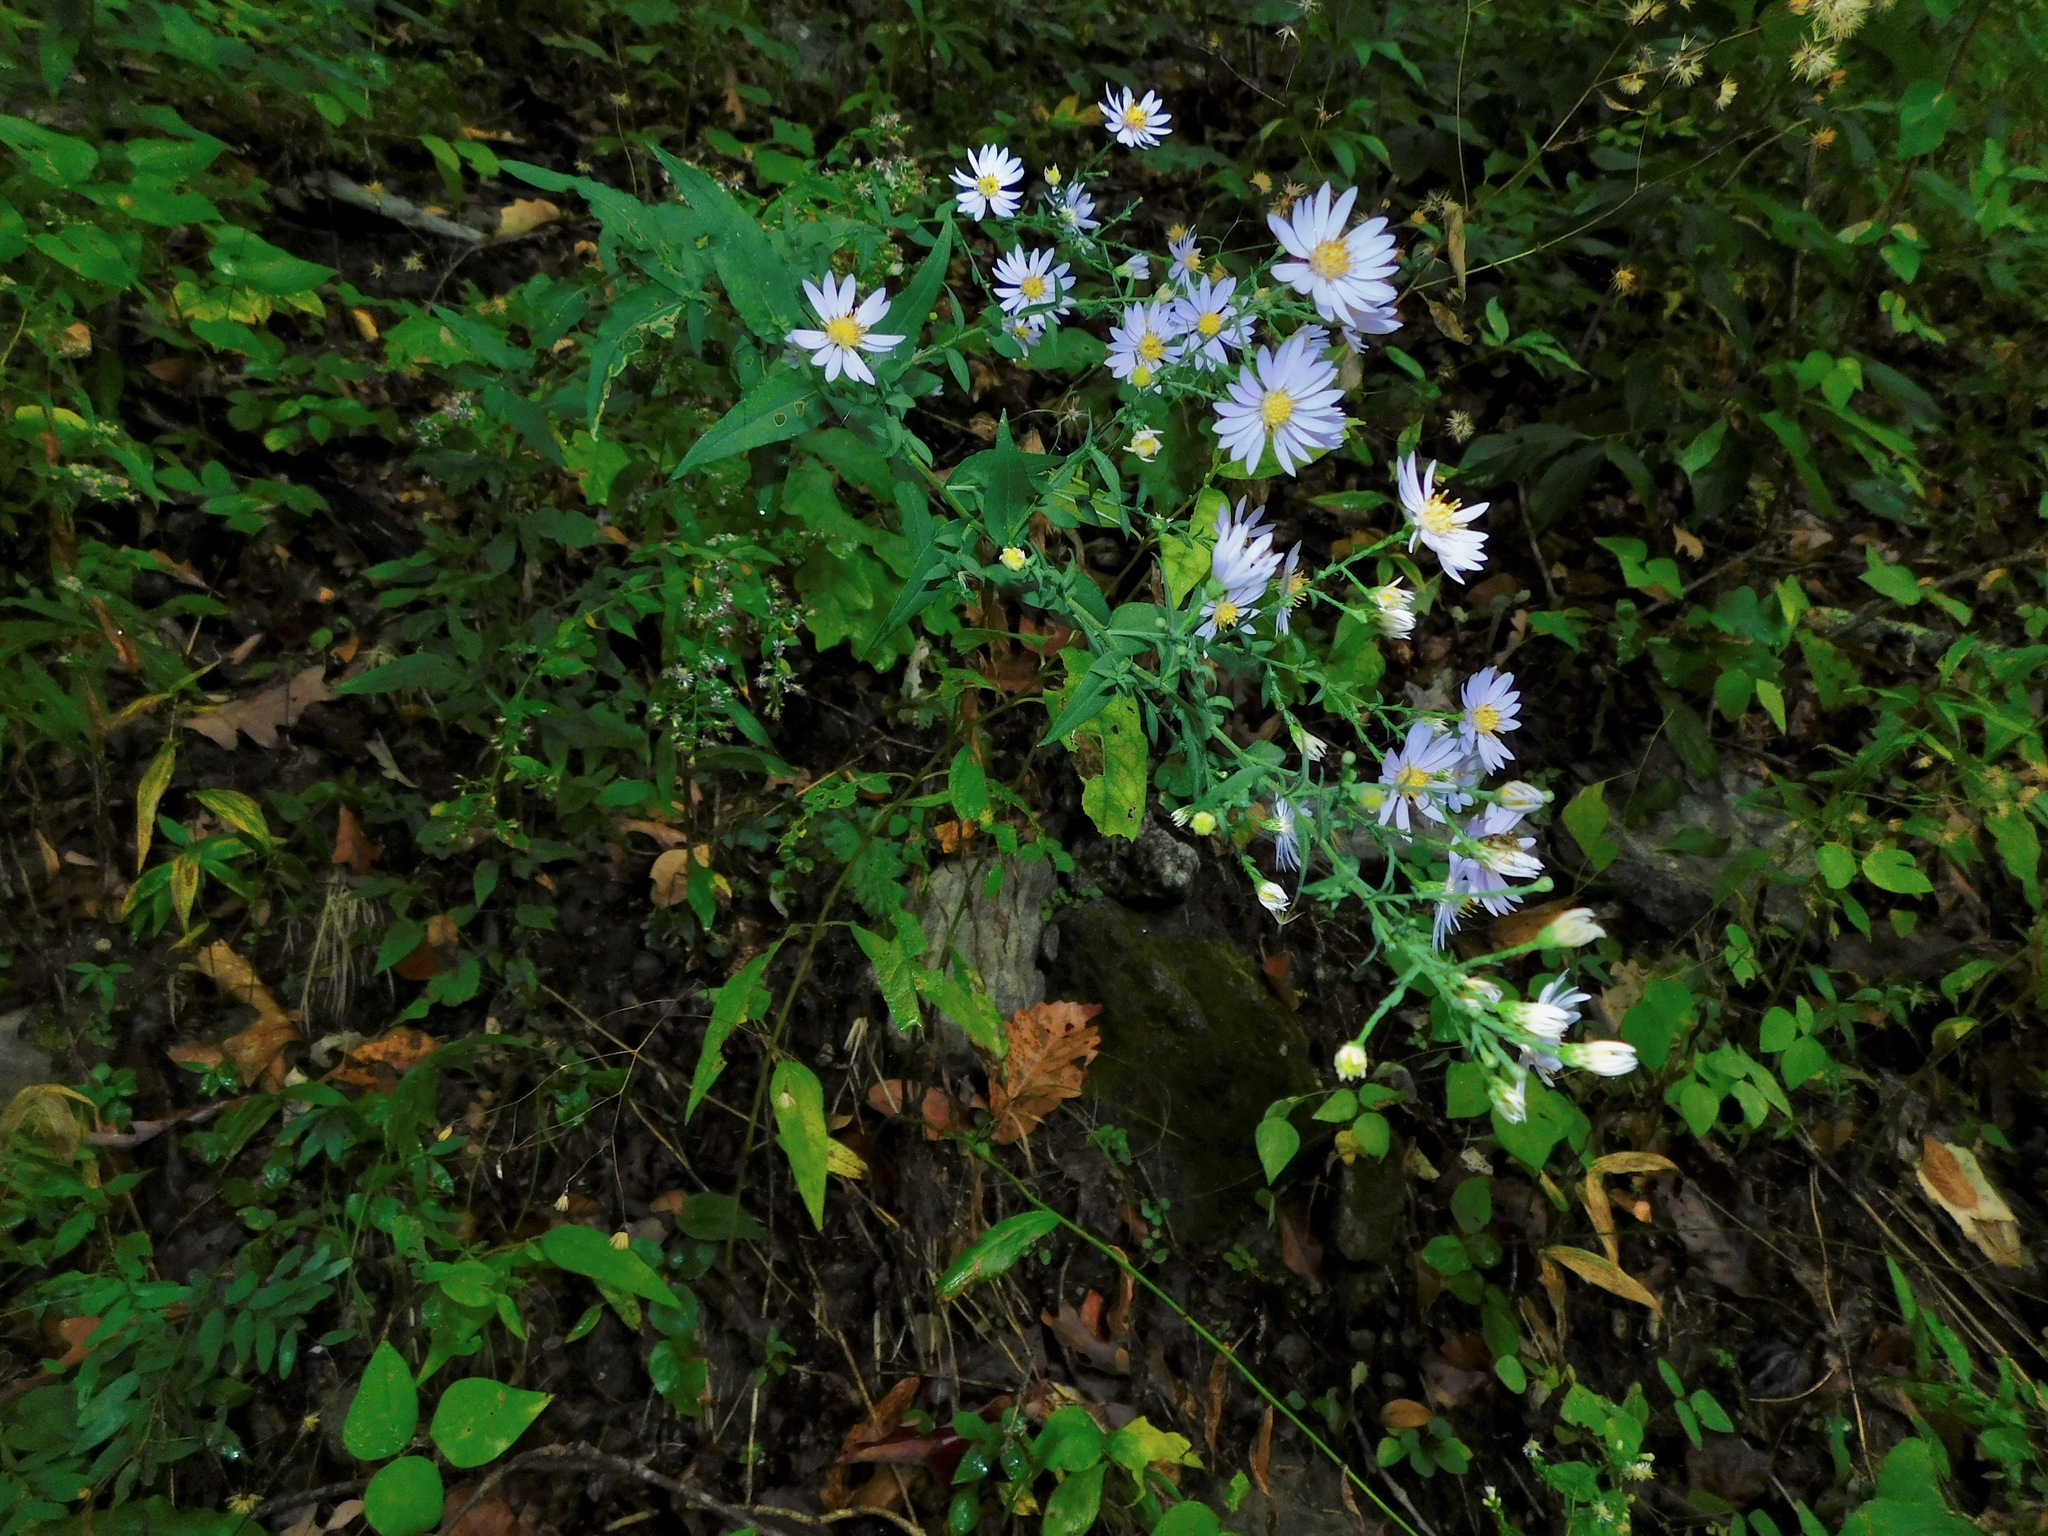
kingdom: Plantae
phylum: Tracheophyta
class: Magnoliopsida
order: Asterales
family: Asteraceae
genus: Symphyotrichum
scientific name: Symphyotrichum undulatum
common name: Clasping heart-leaf aster
